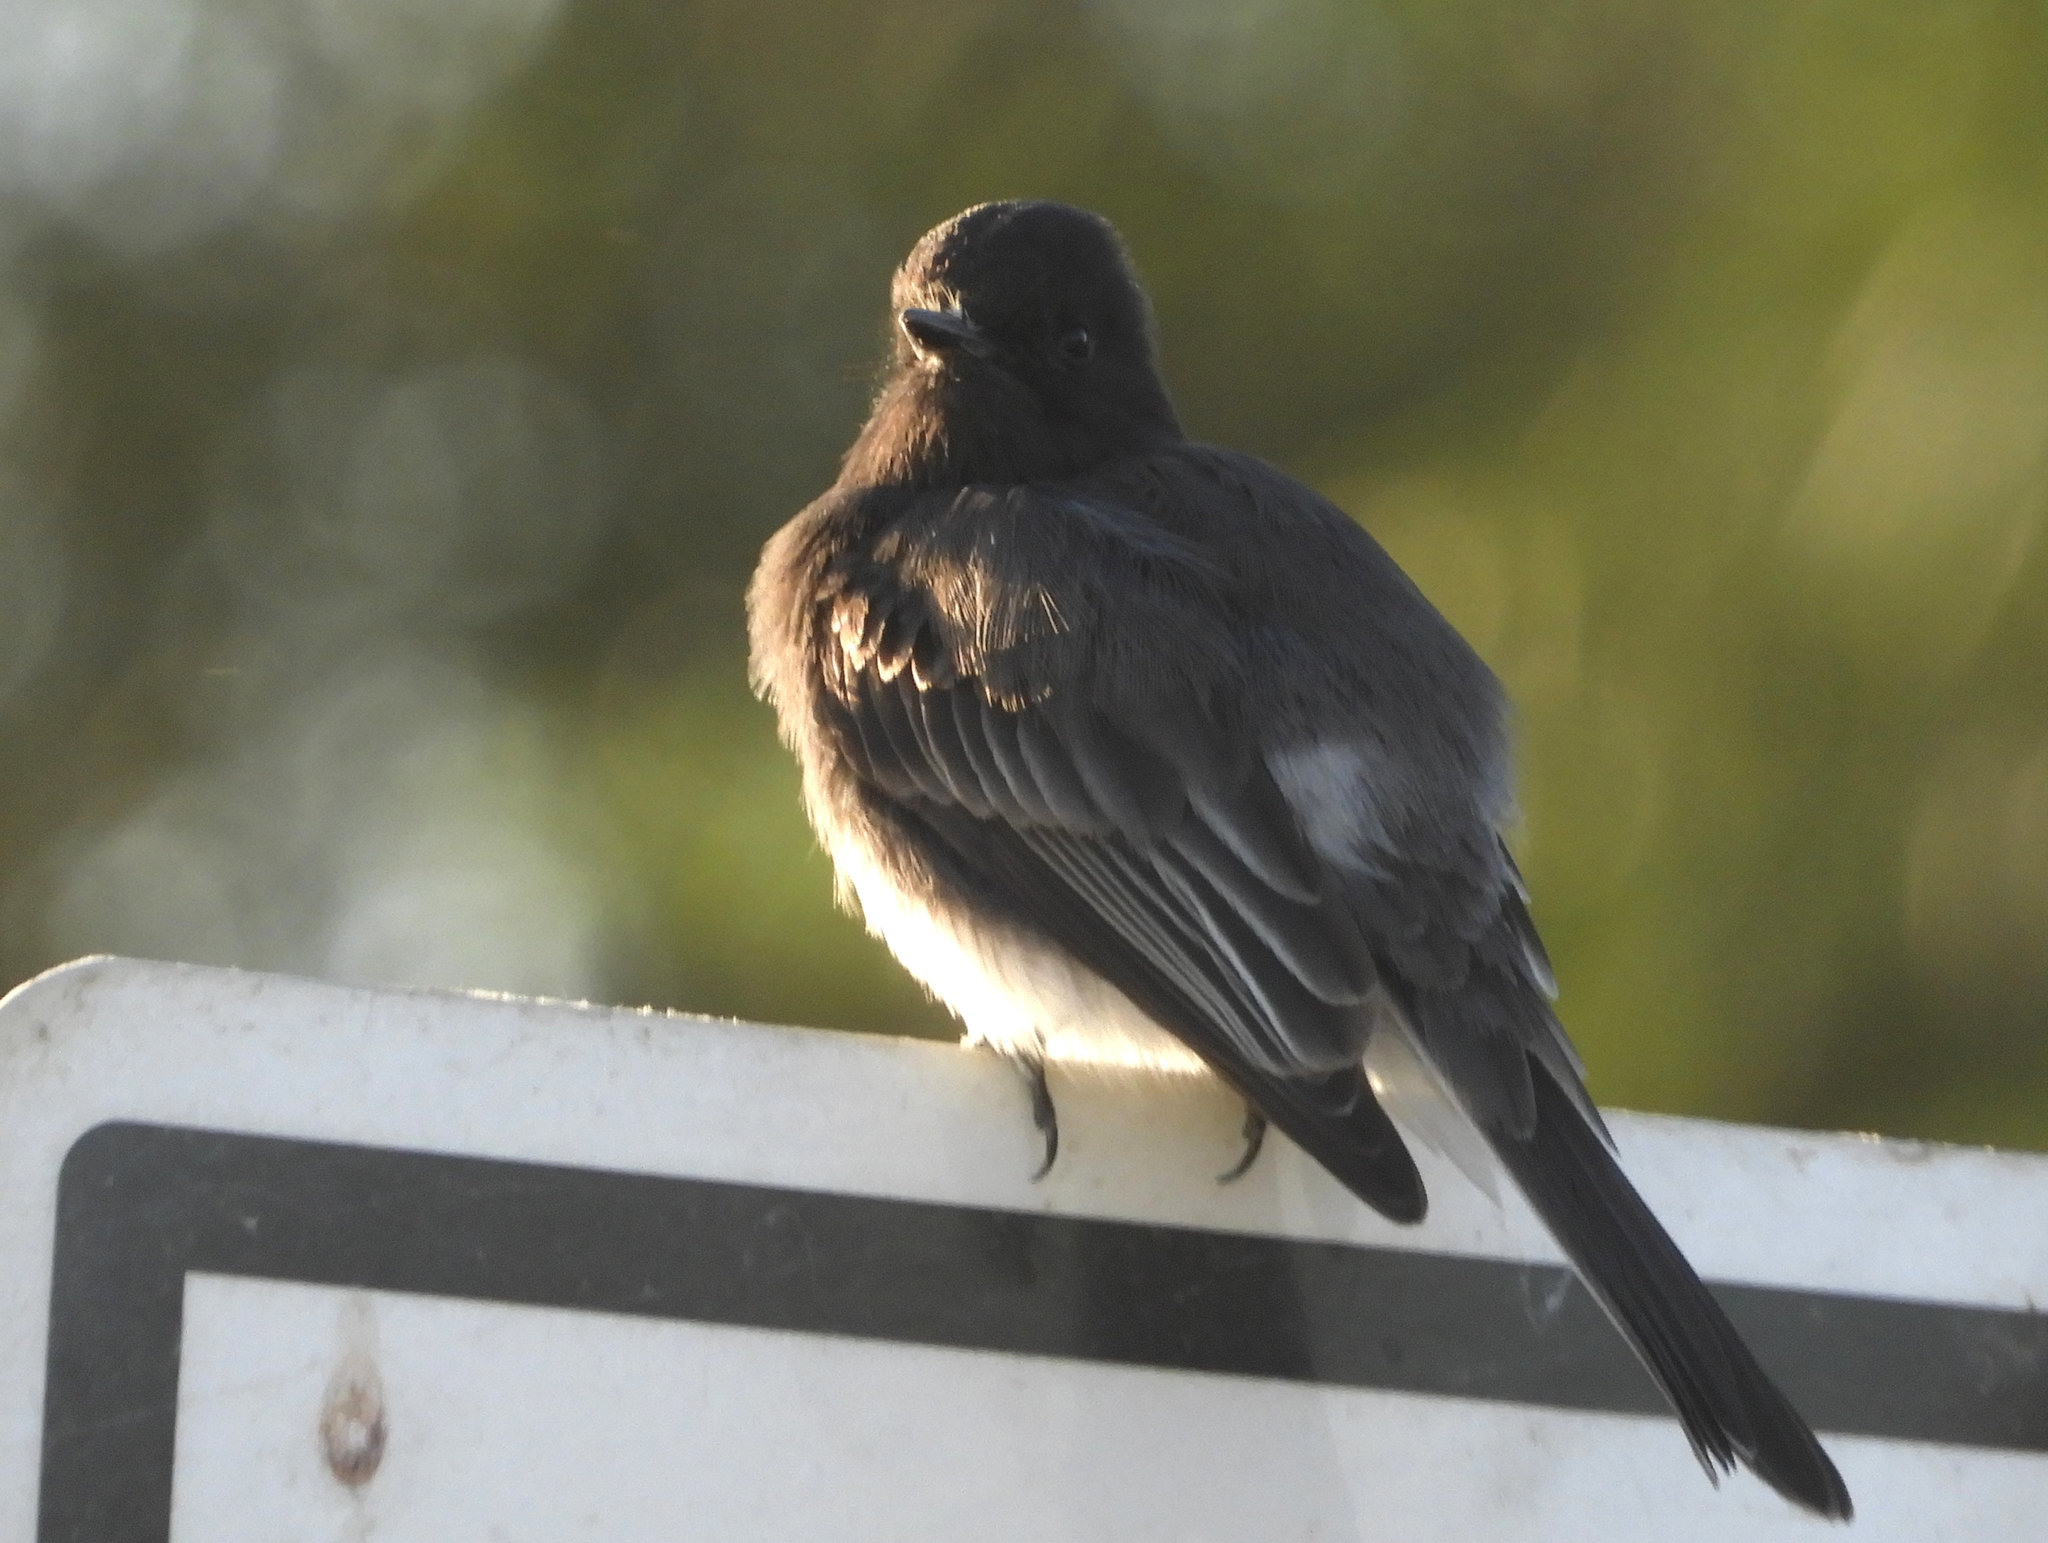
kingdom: Animalia
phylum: Chordata
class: Aves
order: Passeriformes
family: Tyrannidae
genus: Sayornis
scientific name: Sayornis nigricans
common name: Black phoebe
